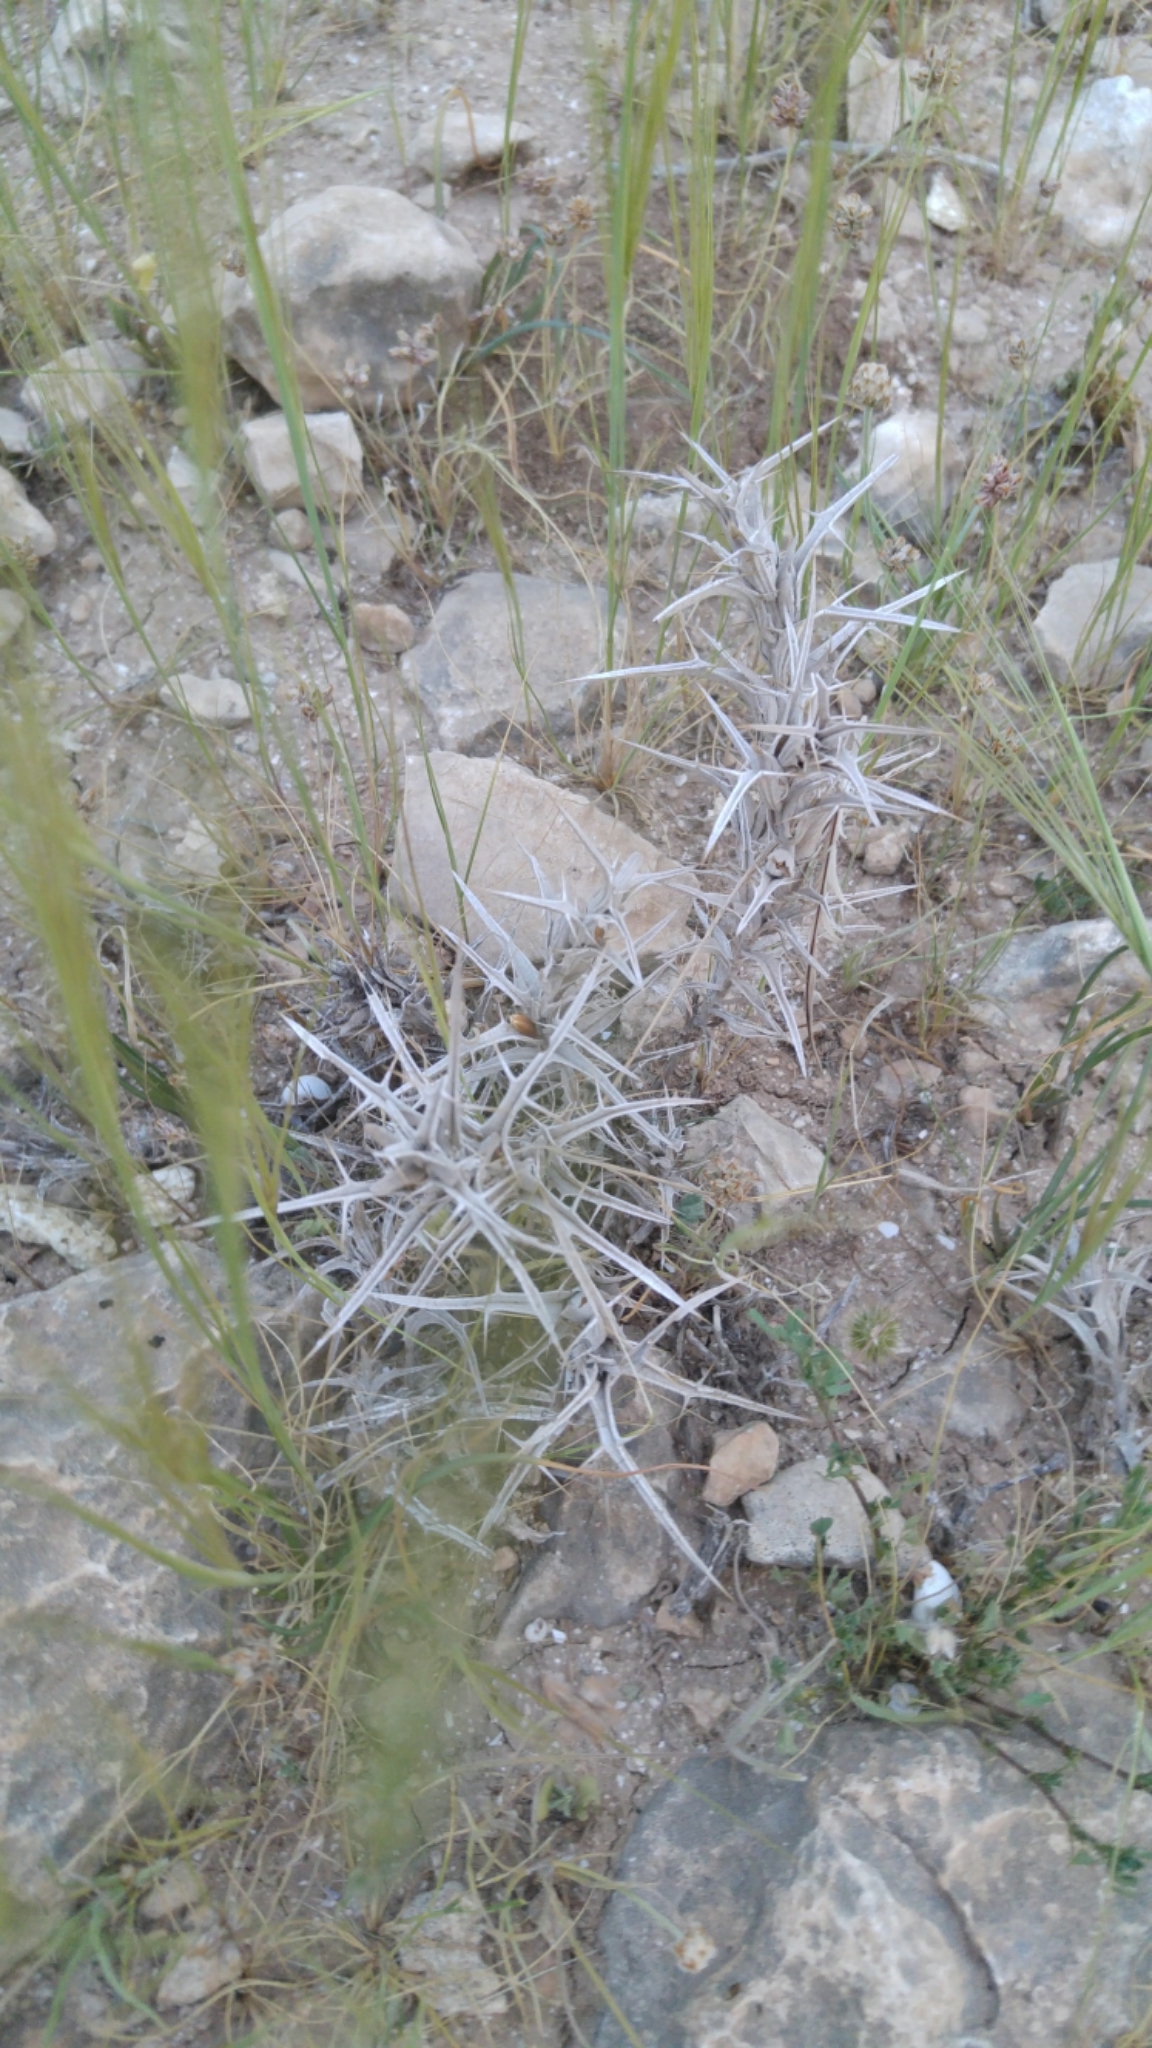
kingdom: Plantae
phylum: Tracheophyta
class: Magnoliopsida
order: Lamiales
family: Acanthaceae
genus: Blepharis
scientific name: Blepharis attenuata
